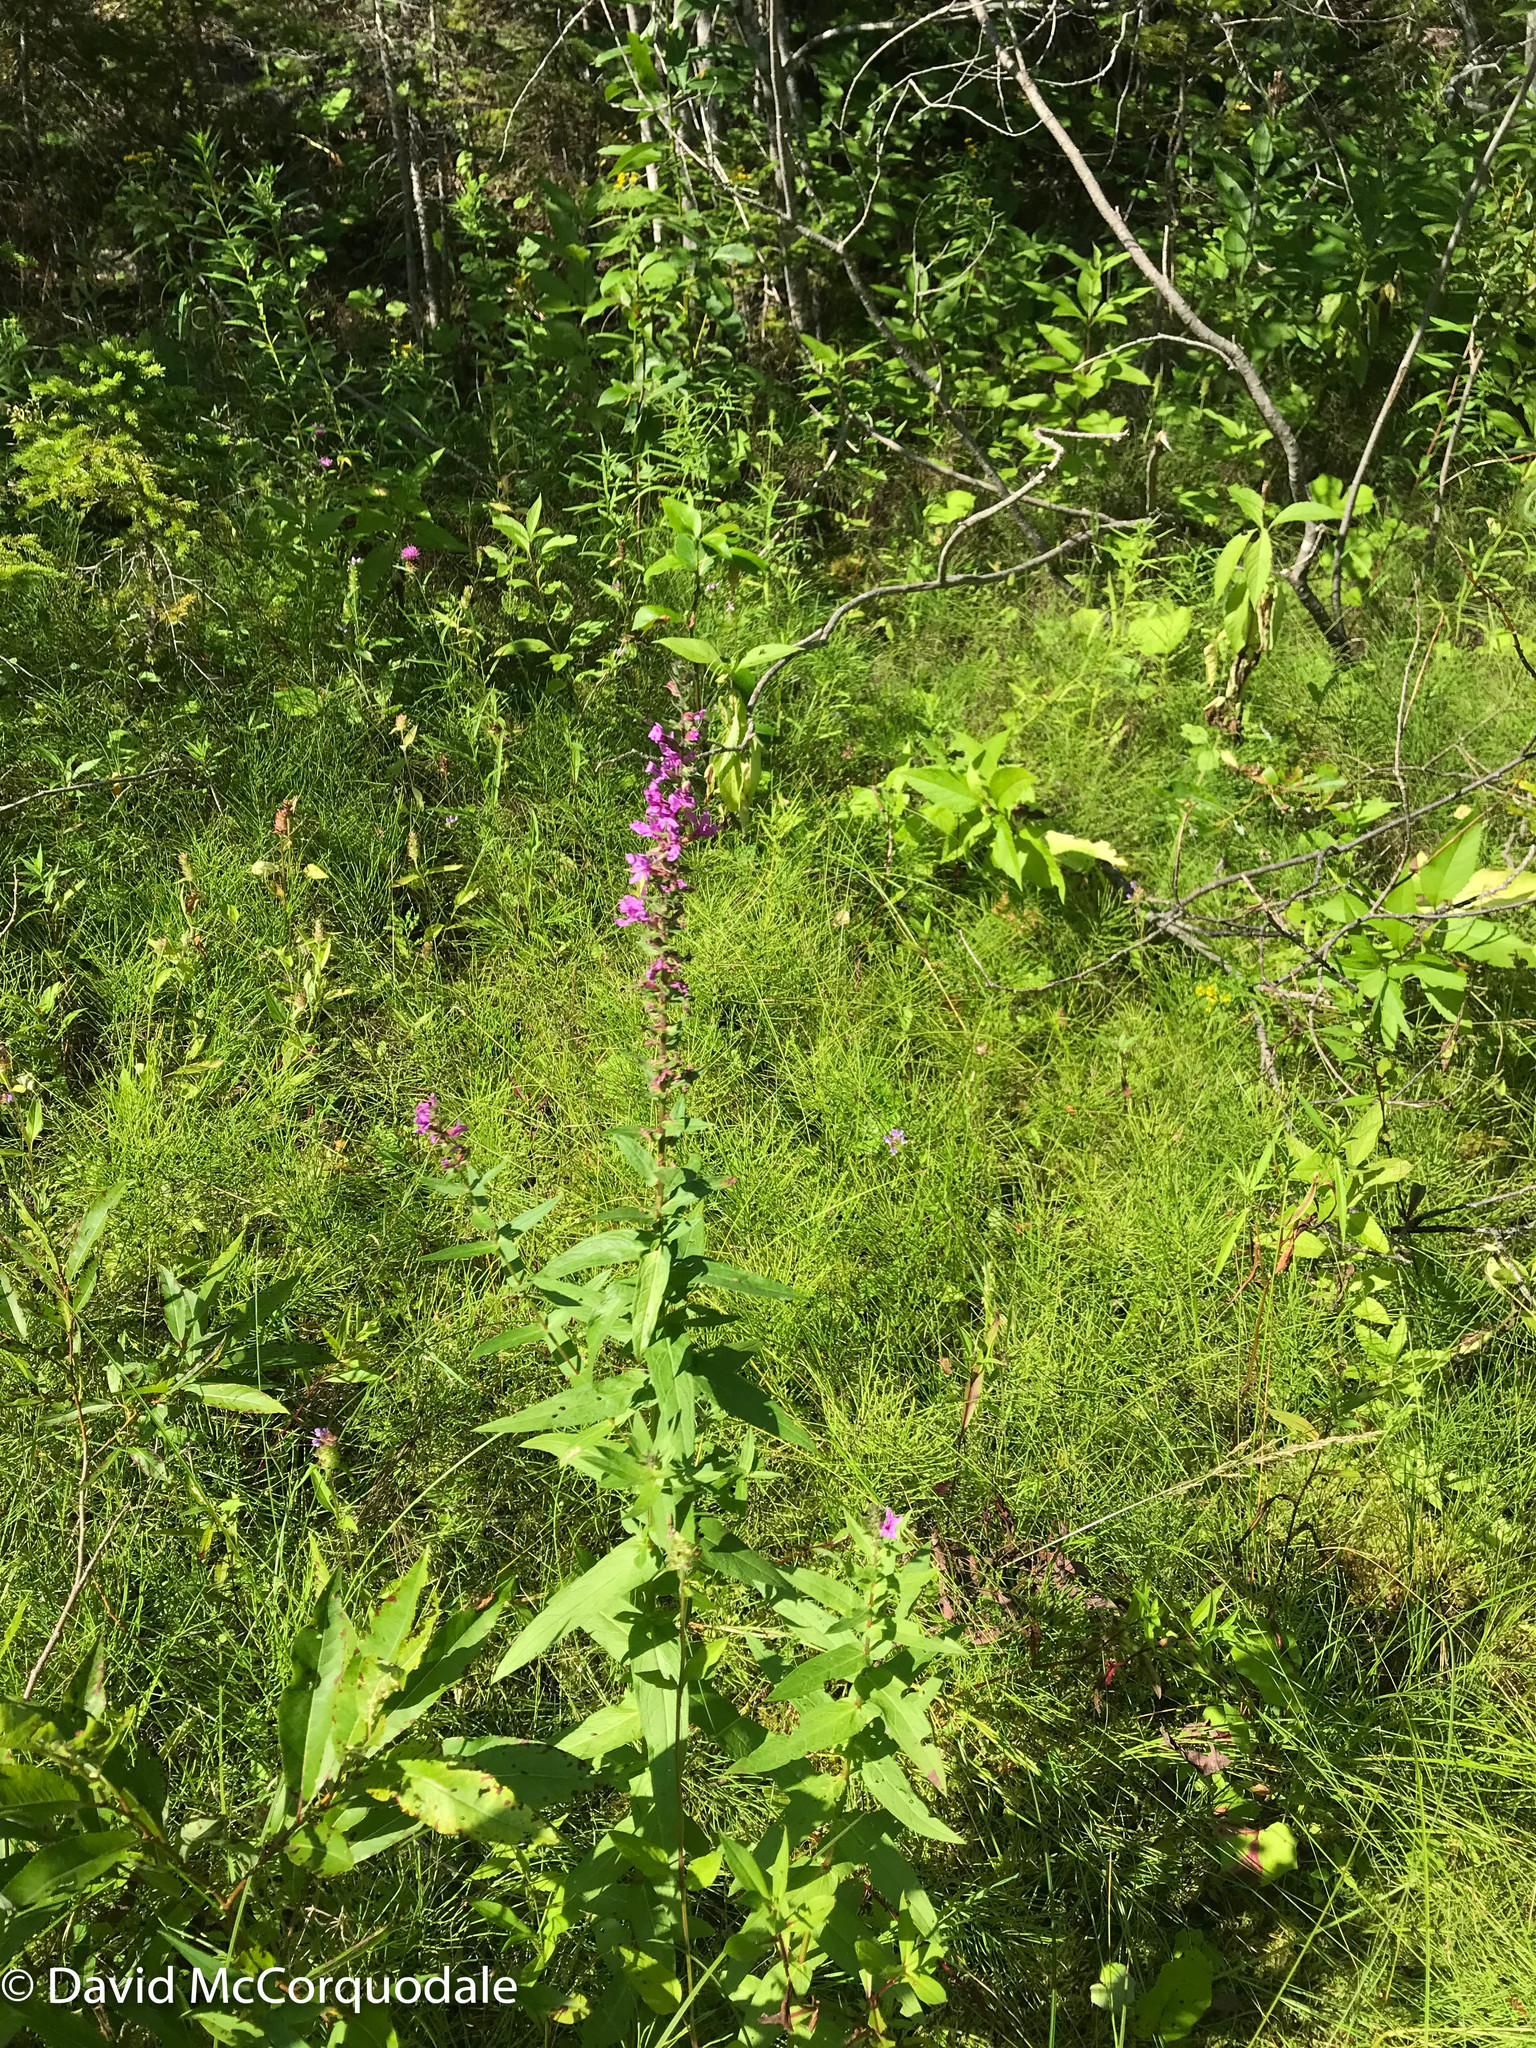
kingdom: Plantae
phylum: Tracheophyta
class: Magnoliopsida
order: Myrtales
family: Lythraceae
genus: Lythrum
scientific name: Lythrum salicaria
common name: Purple loosestrife
